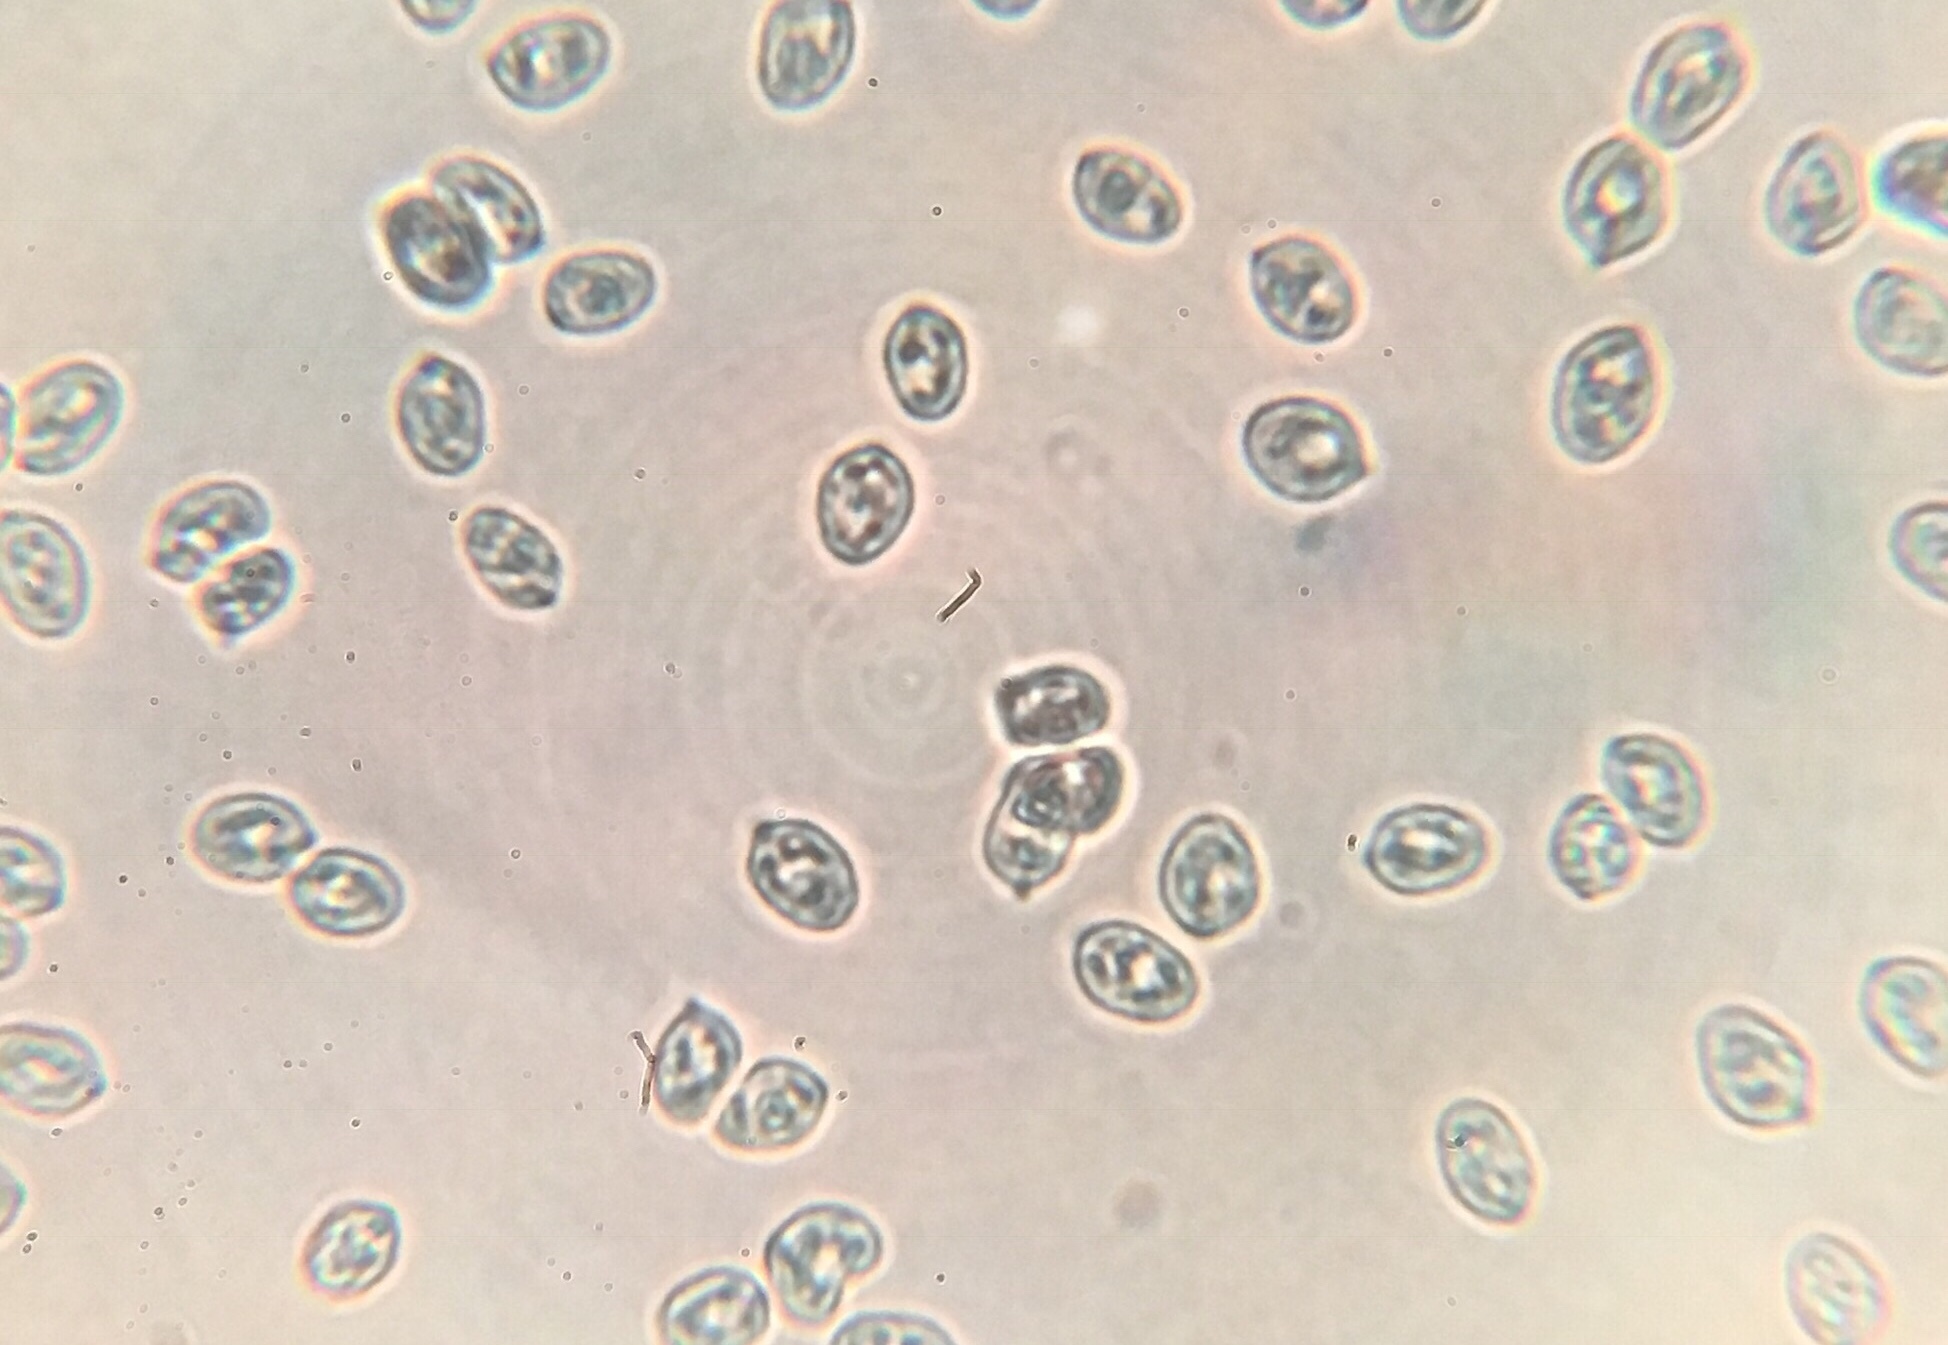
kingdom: Fungi
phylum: Basidiomycota
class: Agaricomycetes
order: Agaricales
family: Physalacriaceae
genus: Armillaria
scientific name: Armillaria gallica
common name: Bulbous honey fungus
